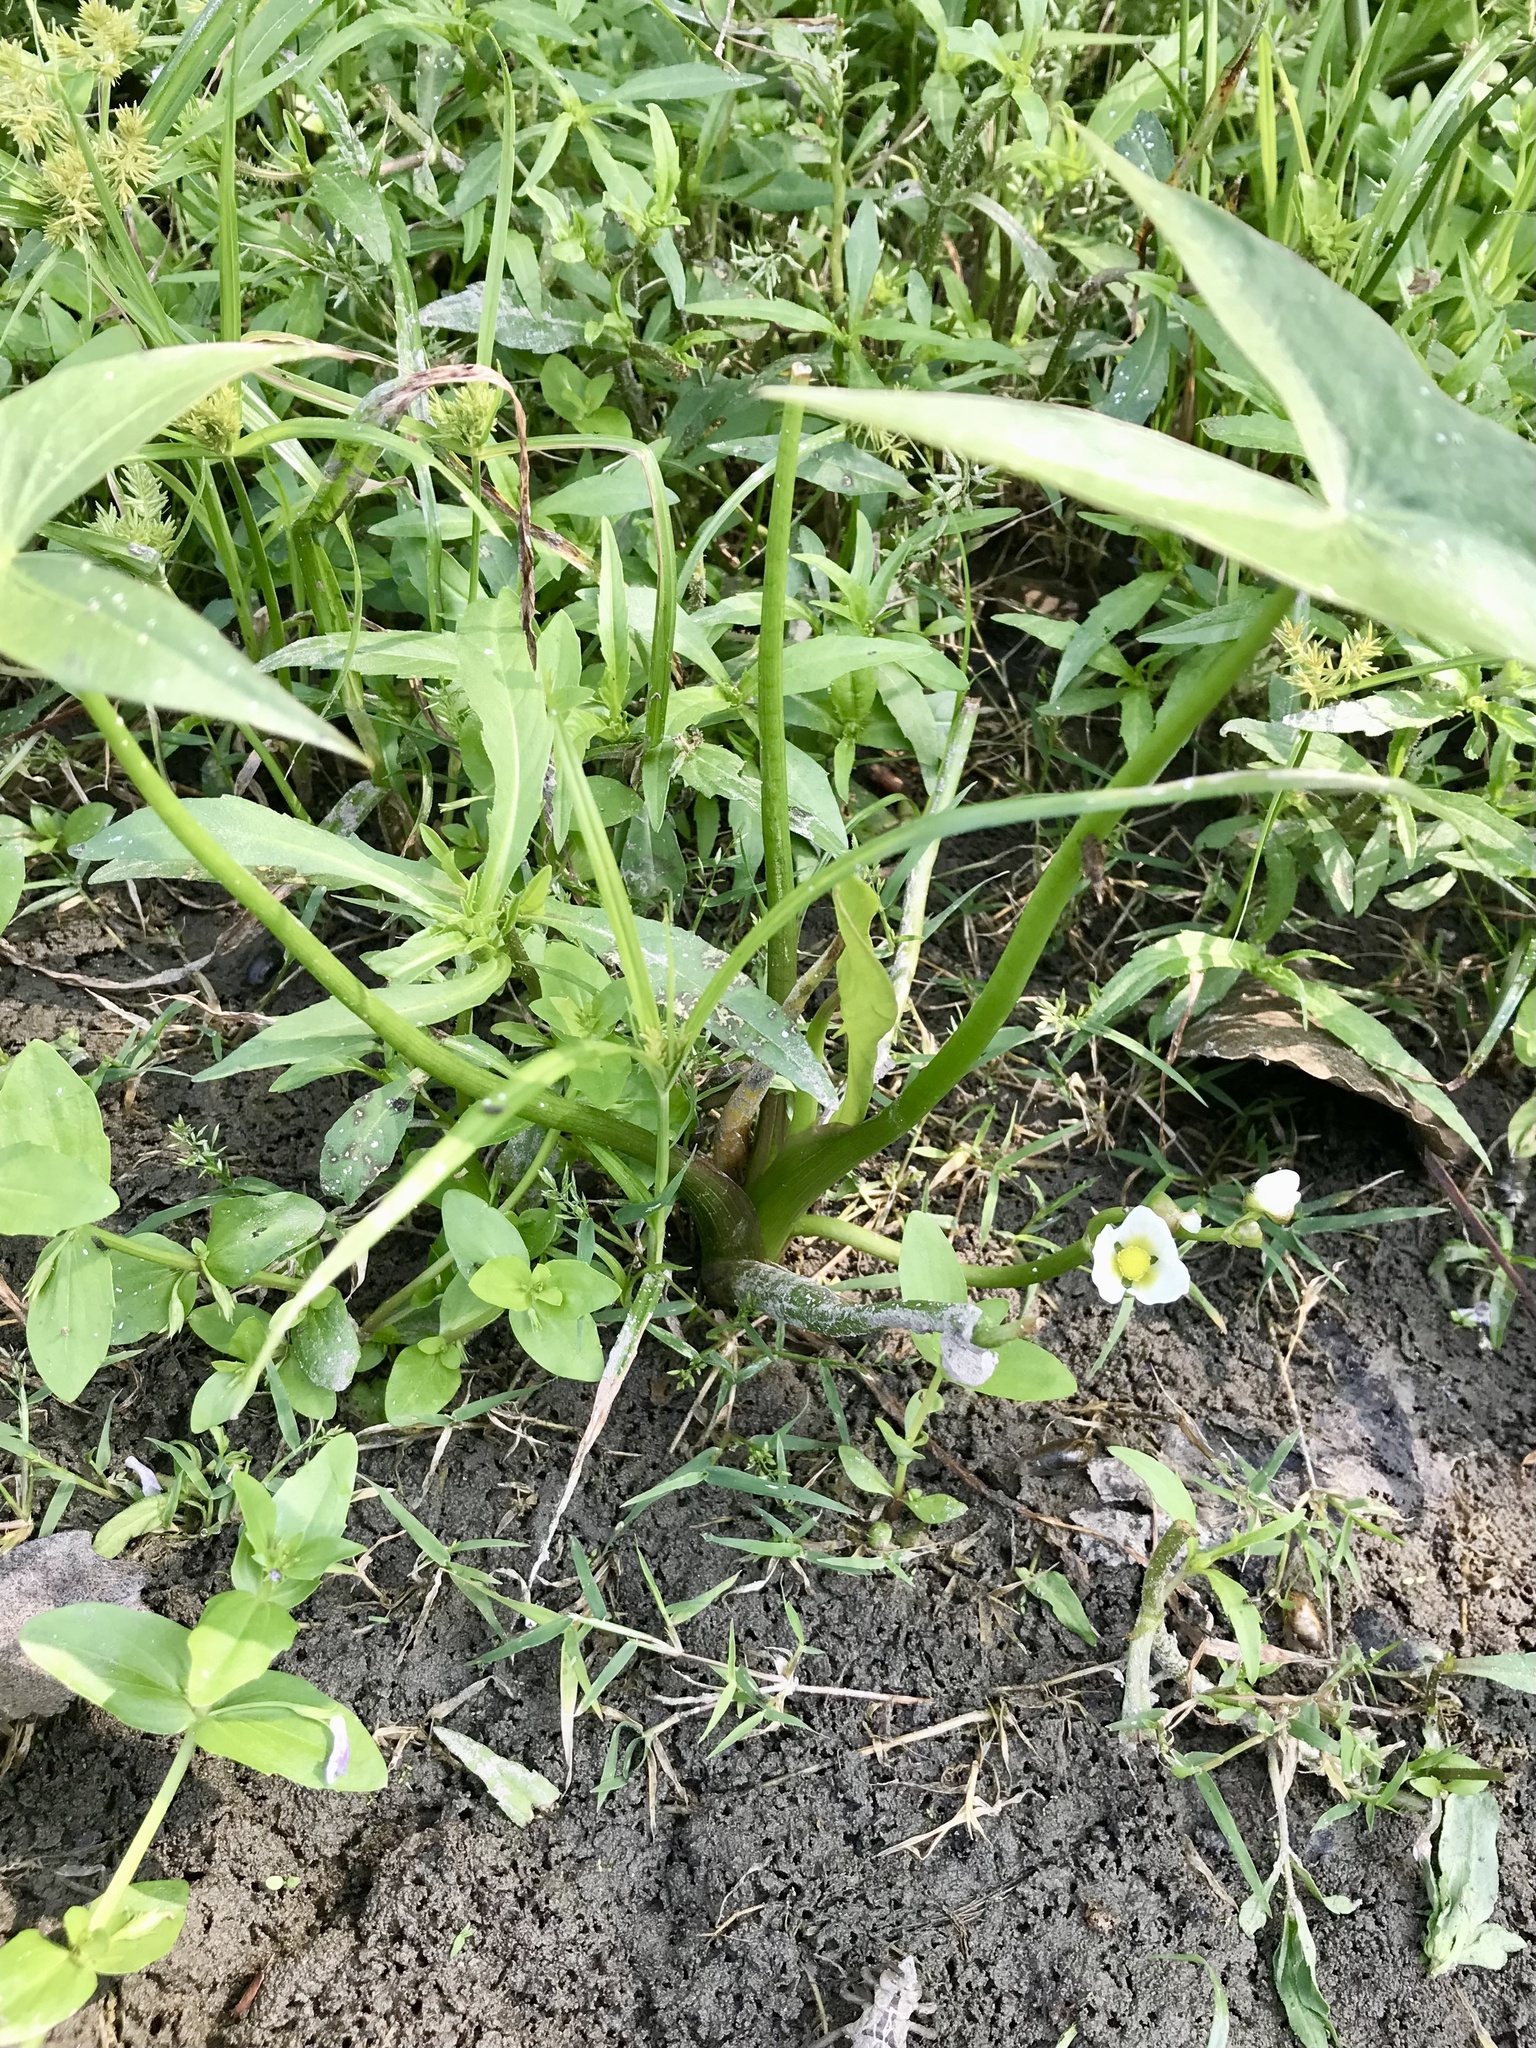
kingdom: Plantae
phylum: Tracheophyta
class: Liliopsida
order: Alismatales
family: Alismataceae
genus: Sagittaria
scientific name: Sagittaria calycina
